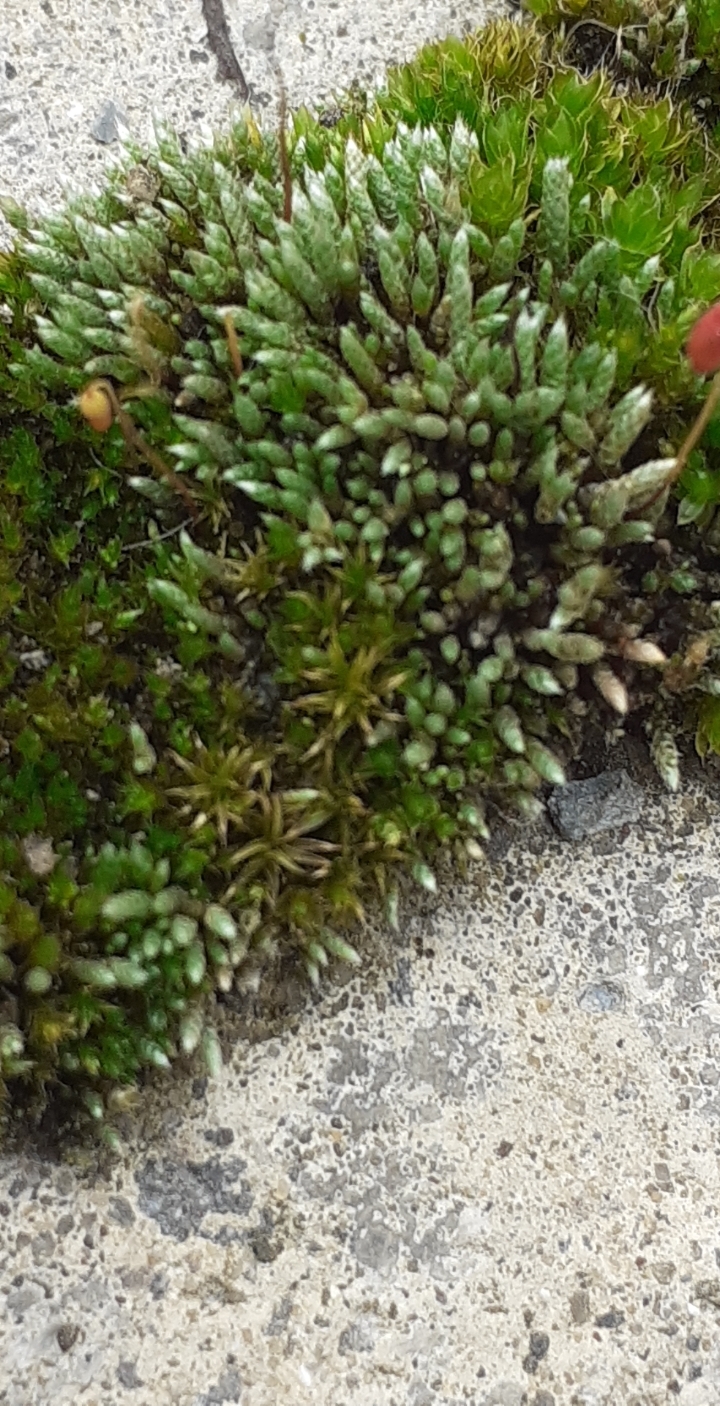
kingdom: Plantae
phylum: Bryophyta
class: Bryopsida
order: Bryales
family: Bryaceae
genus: Bryum
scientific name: Bryum argenteum
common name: Silver-moss
